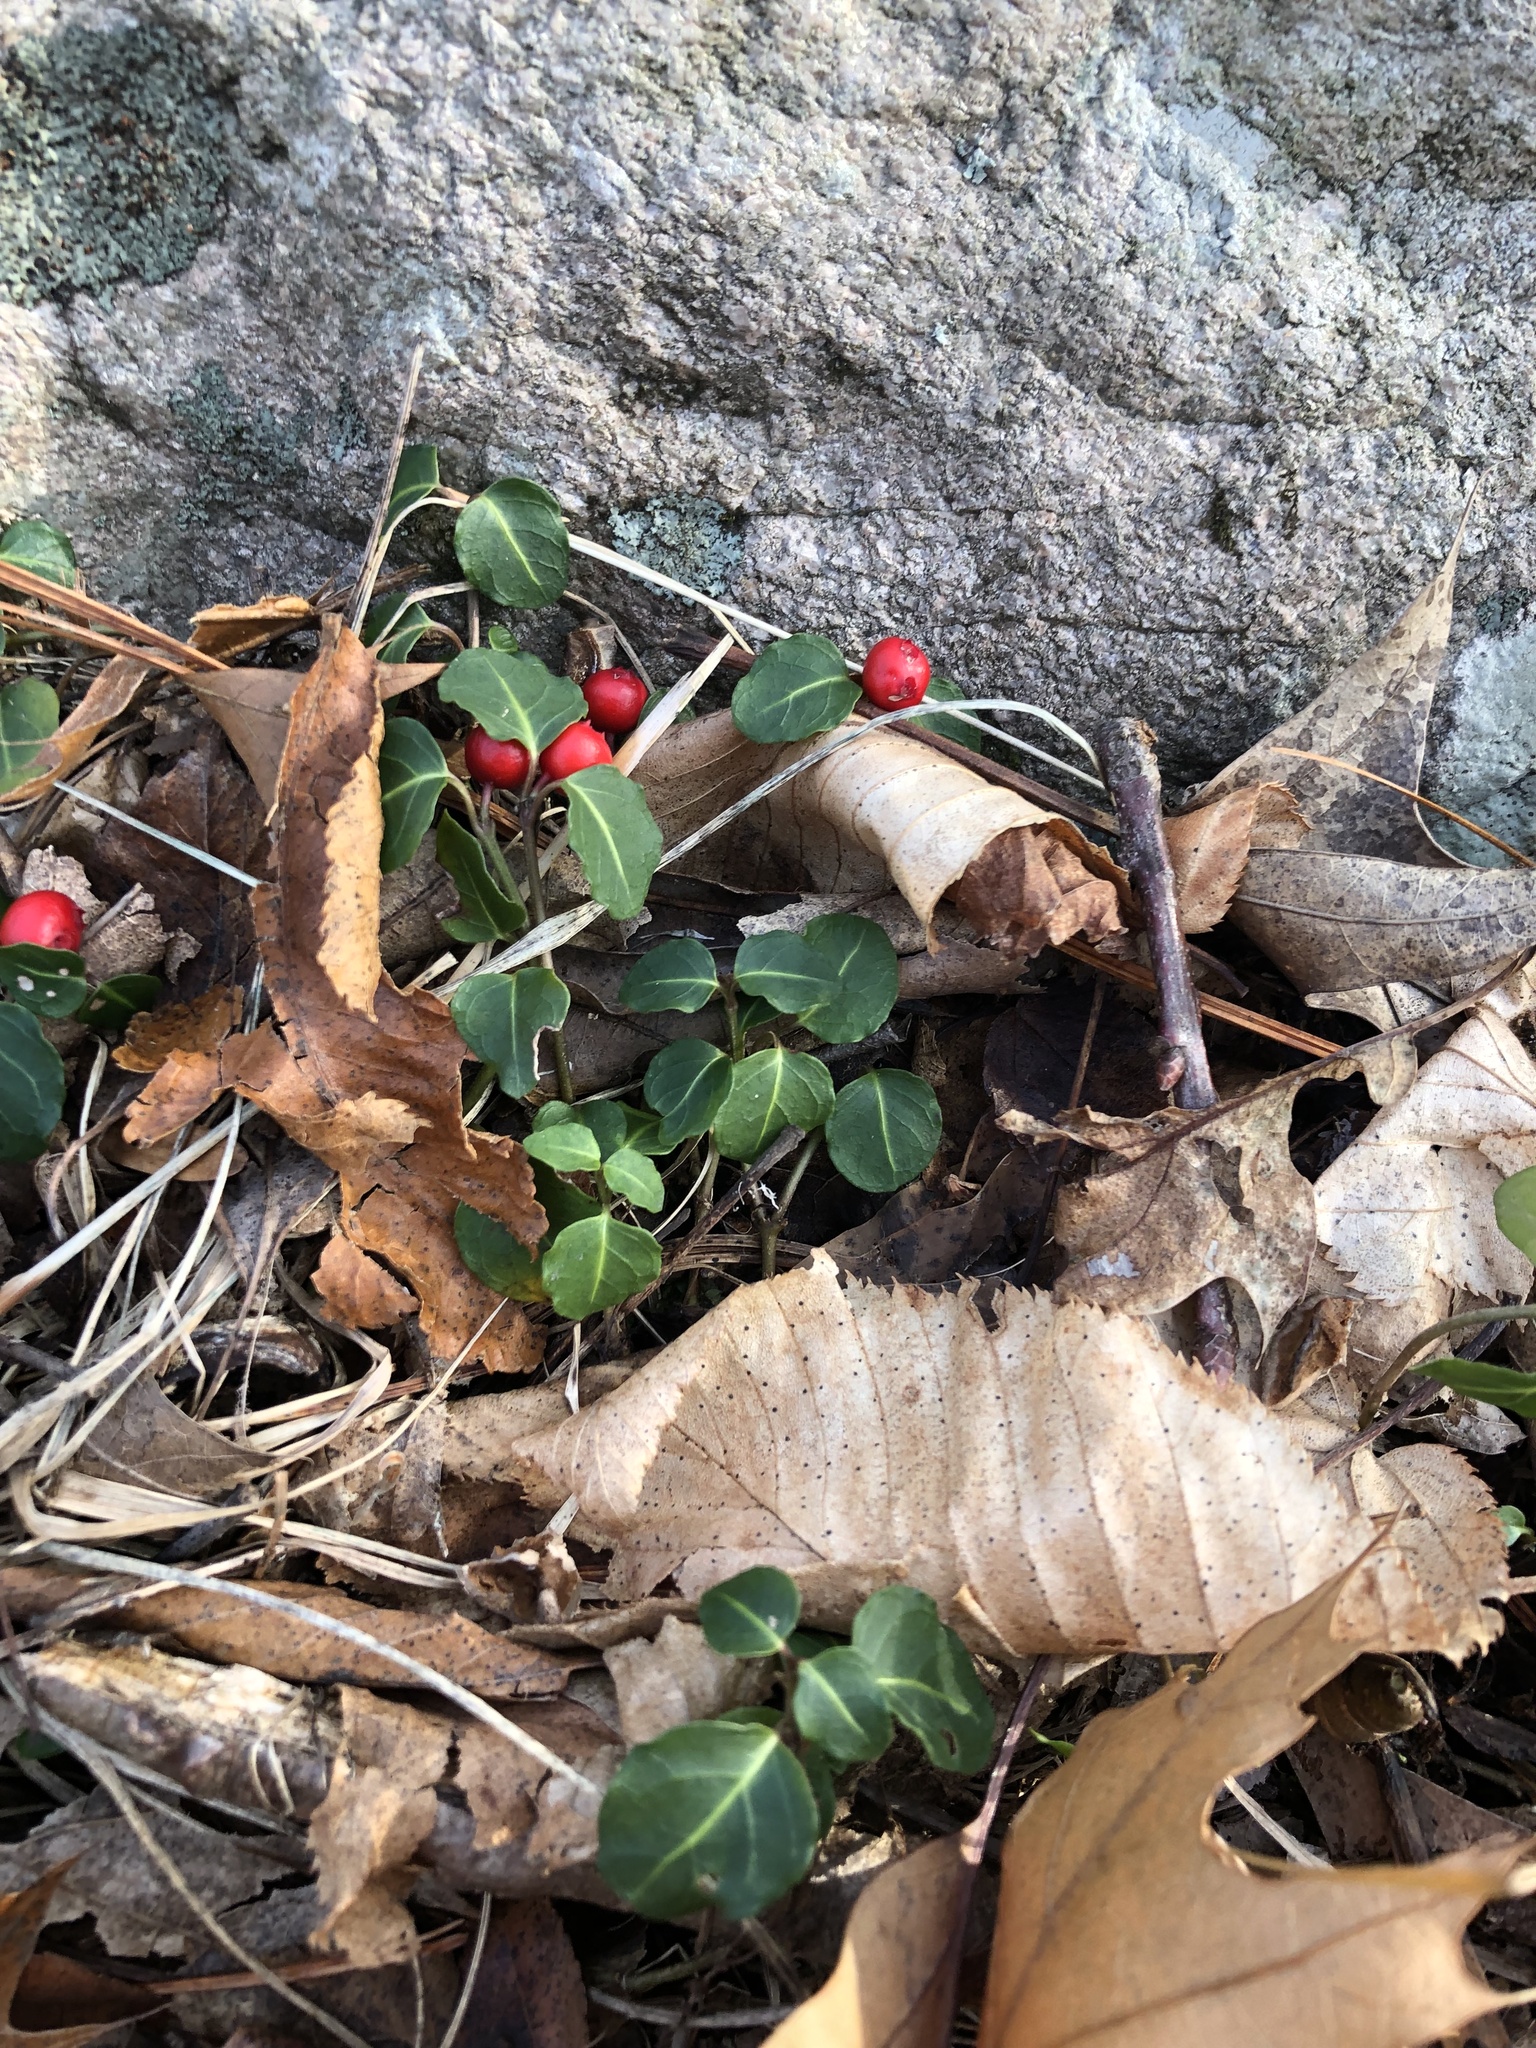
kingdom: Plantae
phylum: Tracheophyta
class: Magnoliopsida
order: Gentianales
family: Rubiaceae
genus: Mitchella
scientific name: Mitchella repens
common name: Partridge-berry
